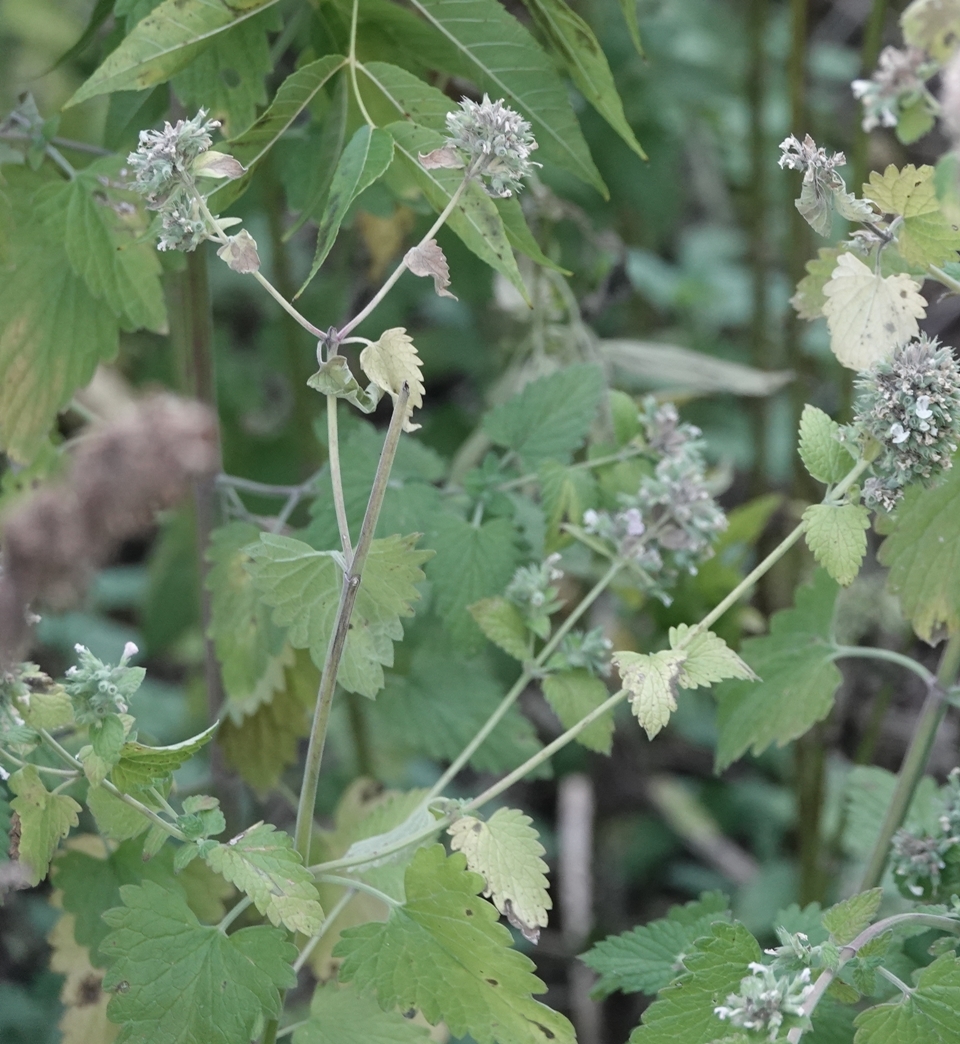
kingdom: Plantae
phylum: Tracheophyta
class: Magnoliopsida
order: Lamiales
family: Lamiaceae
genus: Nepeta
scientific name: Nepeta cataria
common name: Catnip
